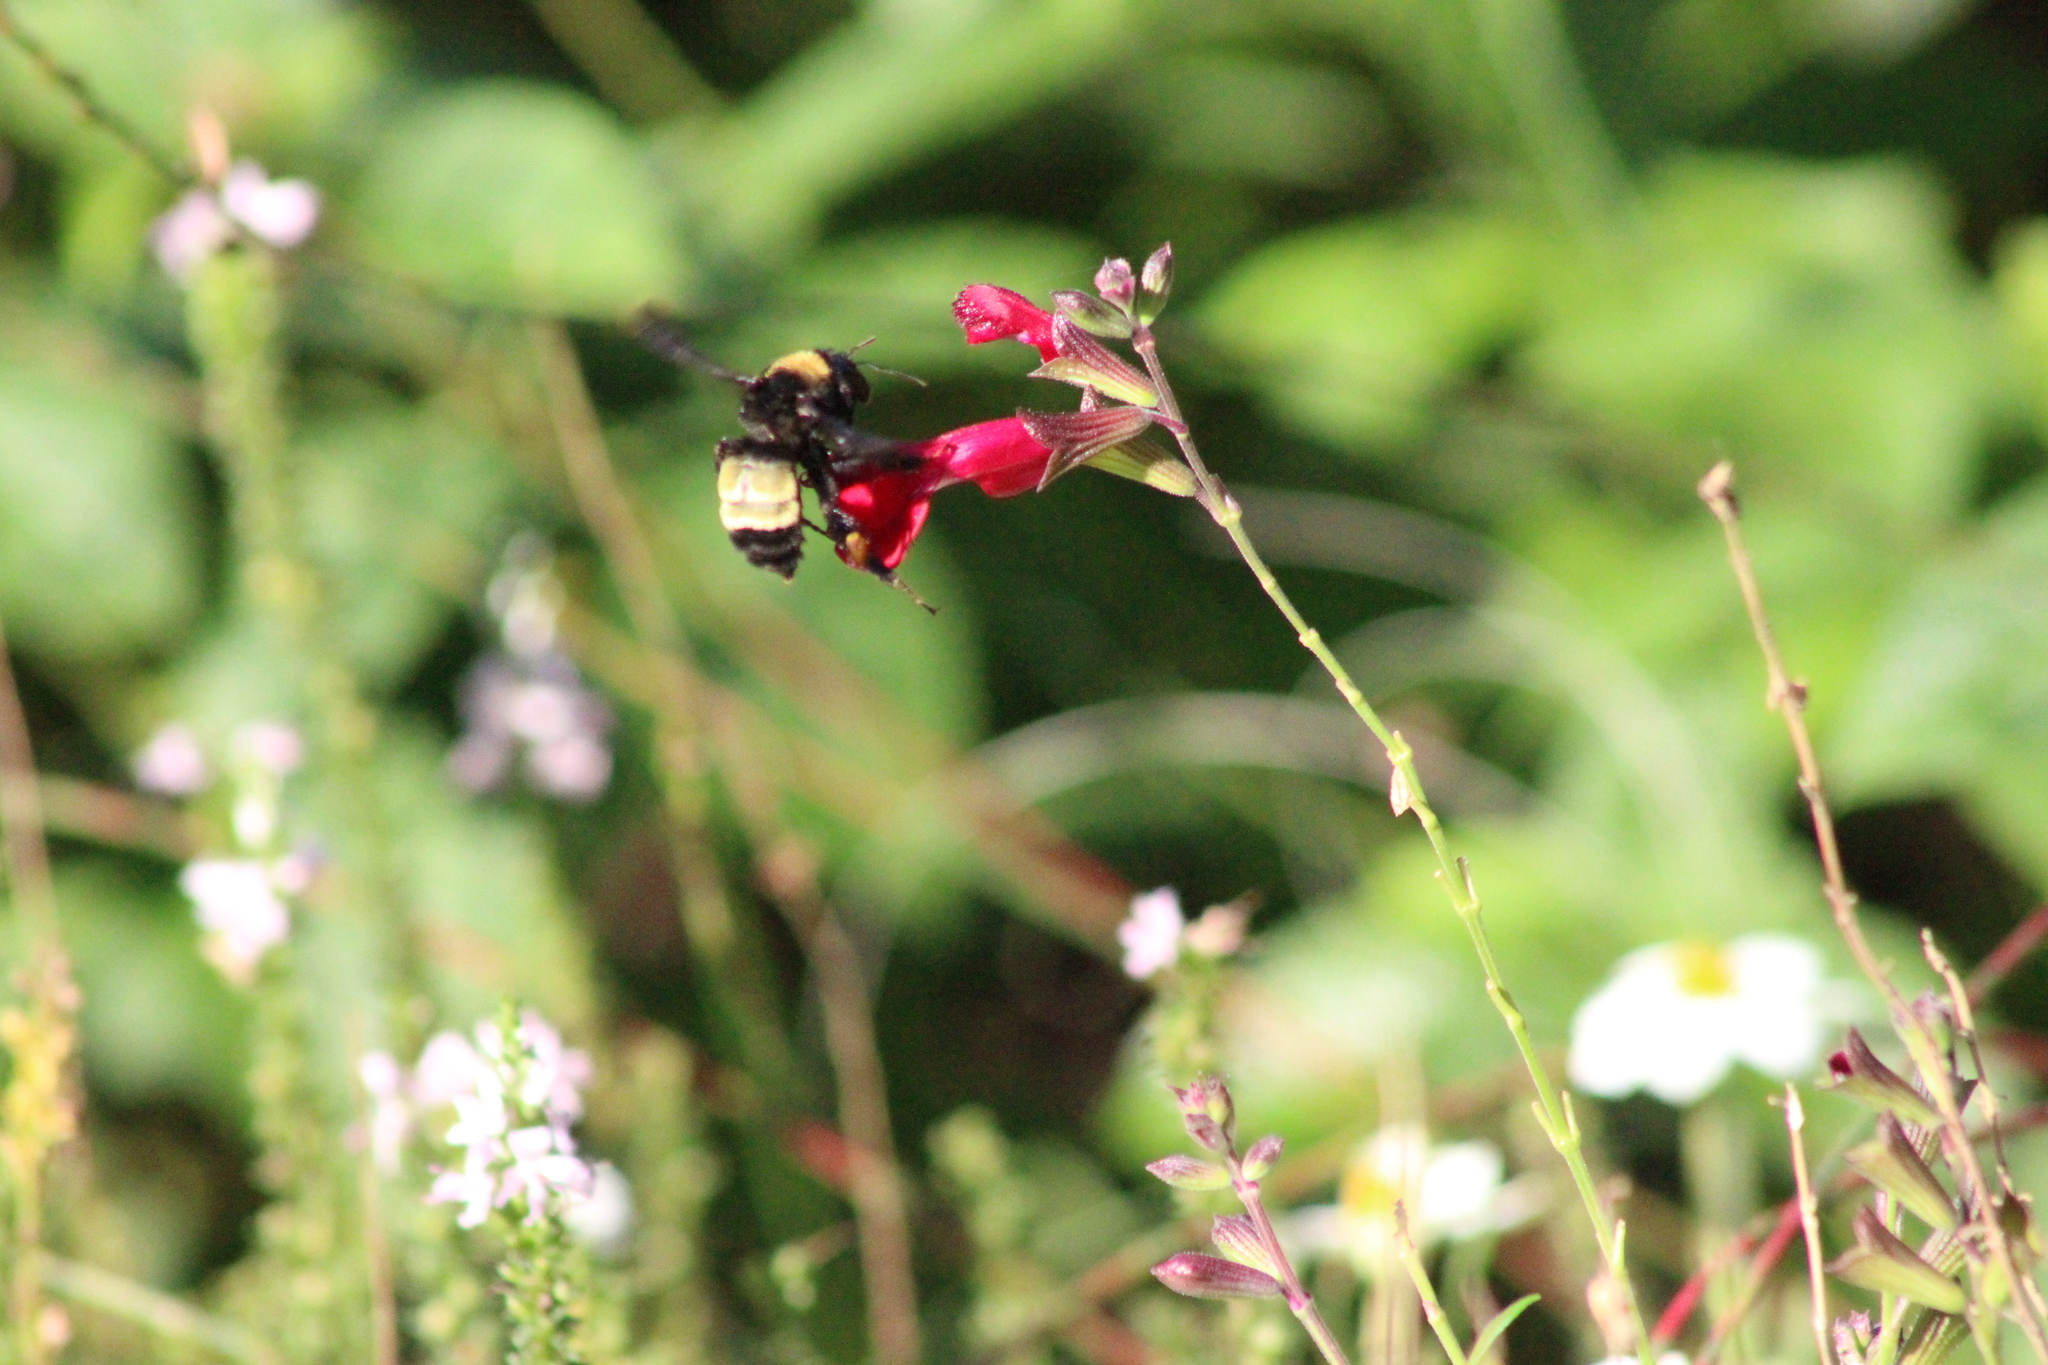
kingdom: Animalia
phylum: Arthropoda
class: Insecta
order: Hymenoptera
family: Apidae
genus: Bombus
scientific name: Bombus pensylvanicus
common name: Bumble bee
